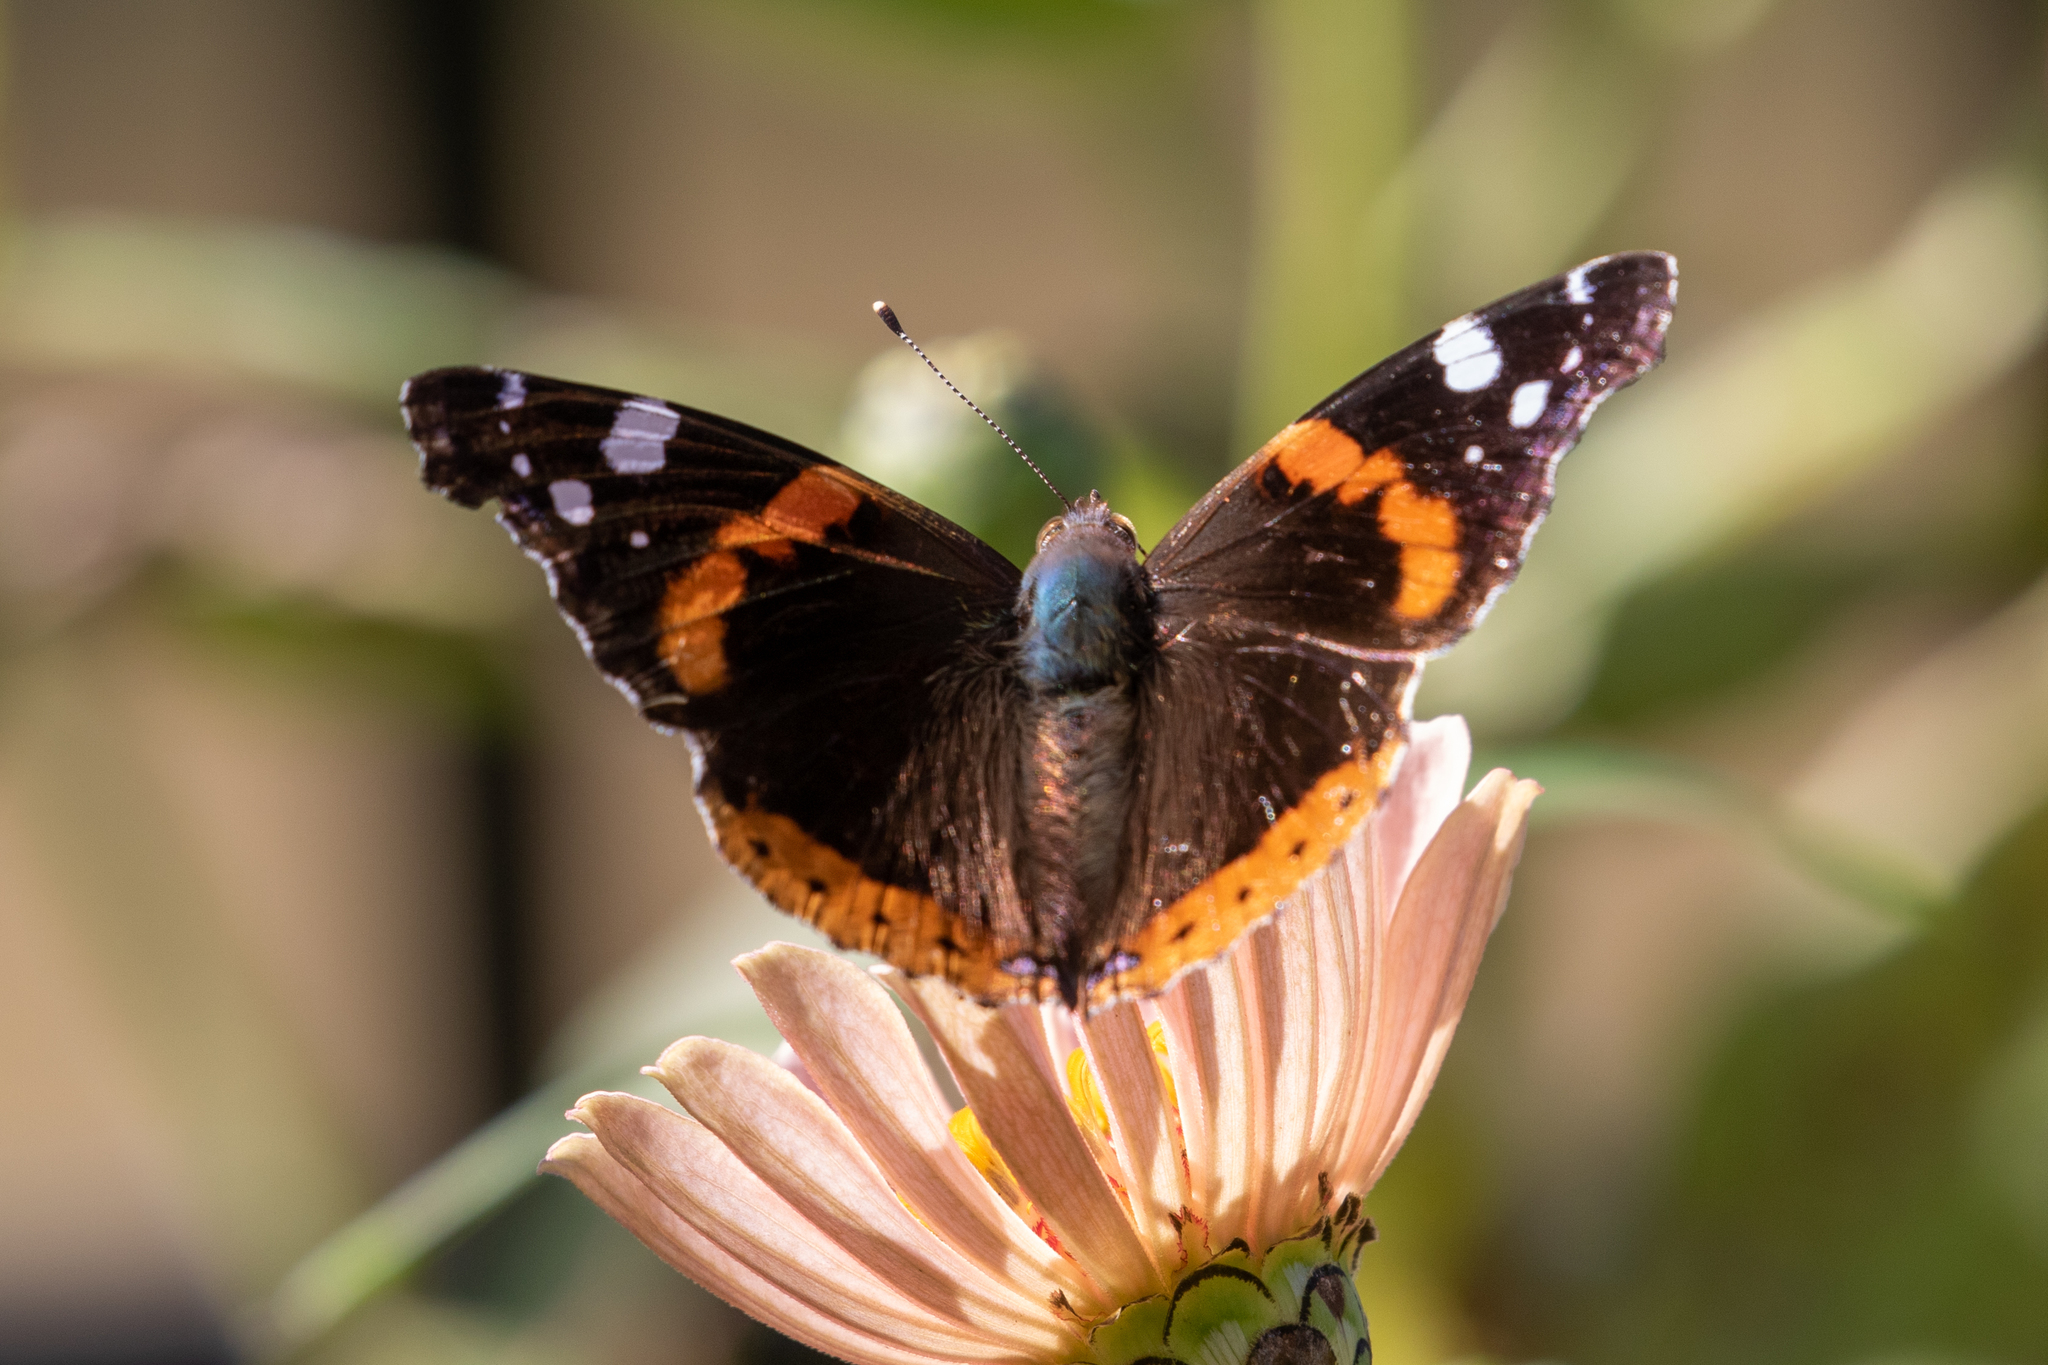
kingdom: Animalia
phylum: Arthropoda
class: Insecta
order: Lepidoptera
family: Nymphalidae
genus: Vanessa
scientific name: Vanessa atalanta
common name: Red admiral
